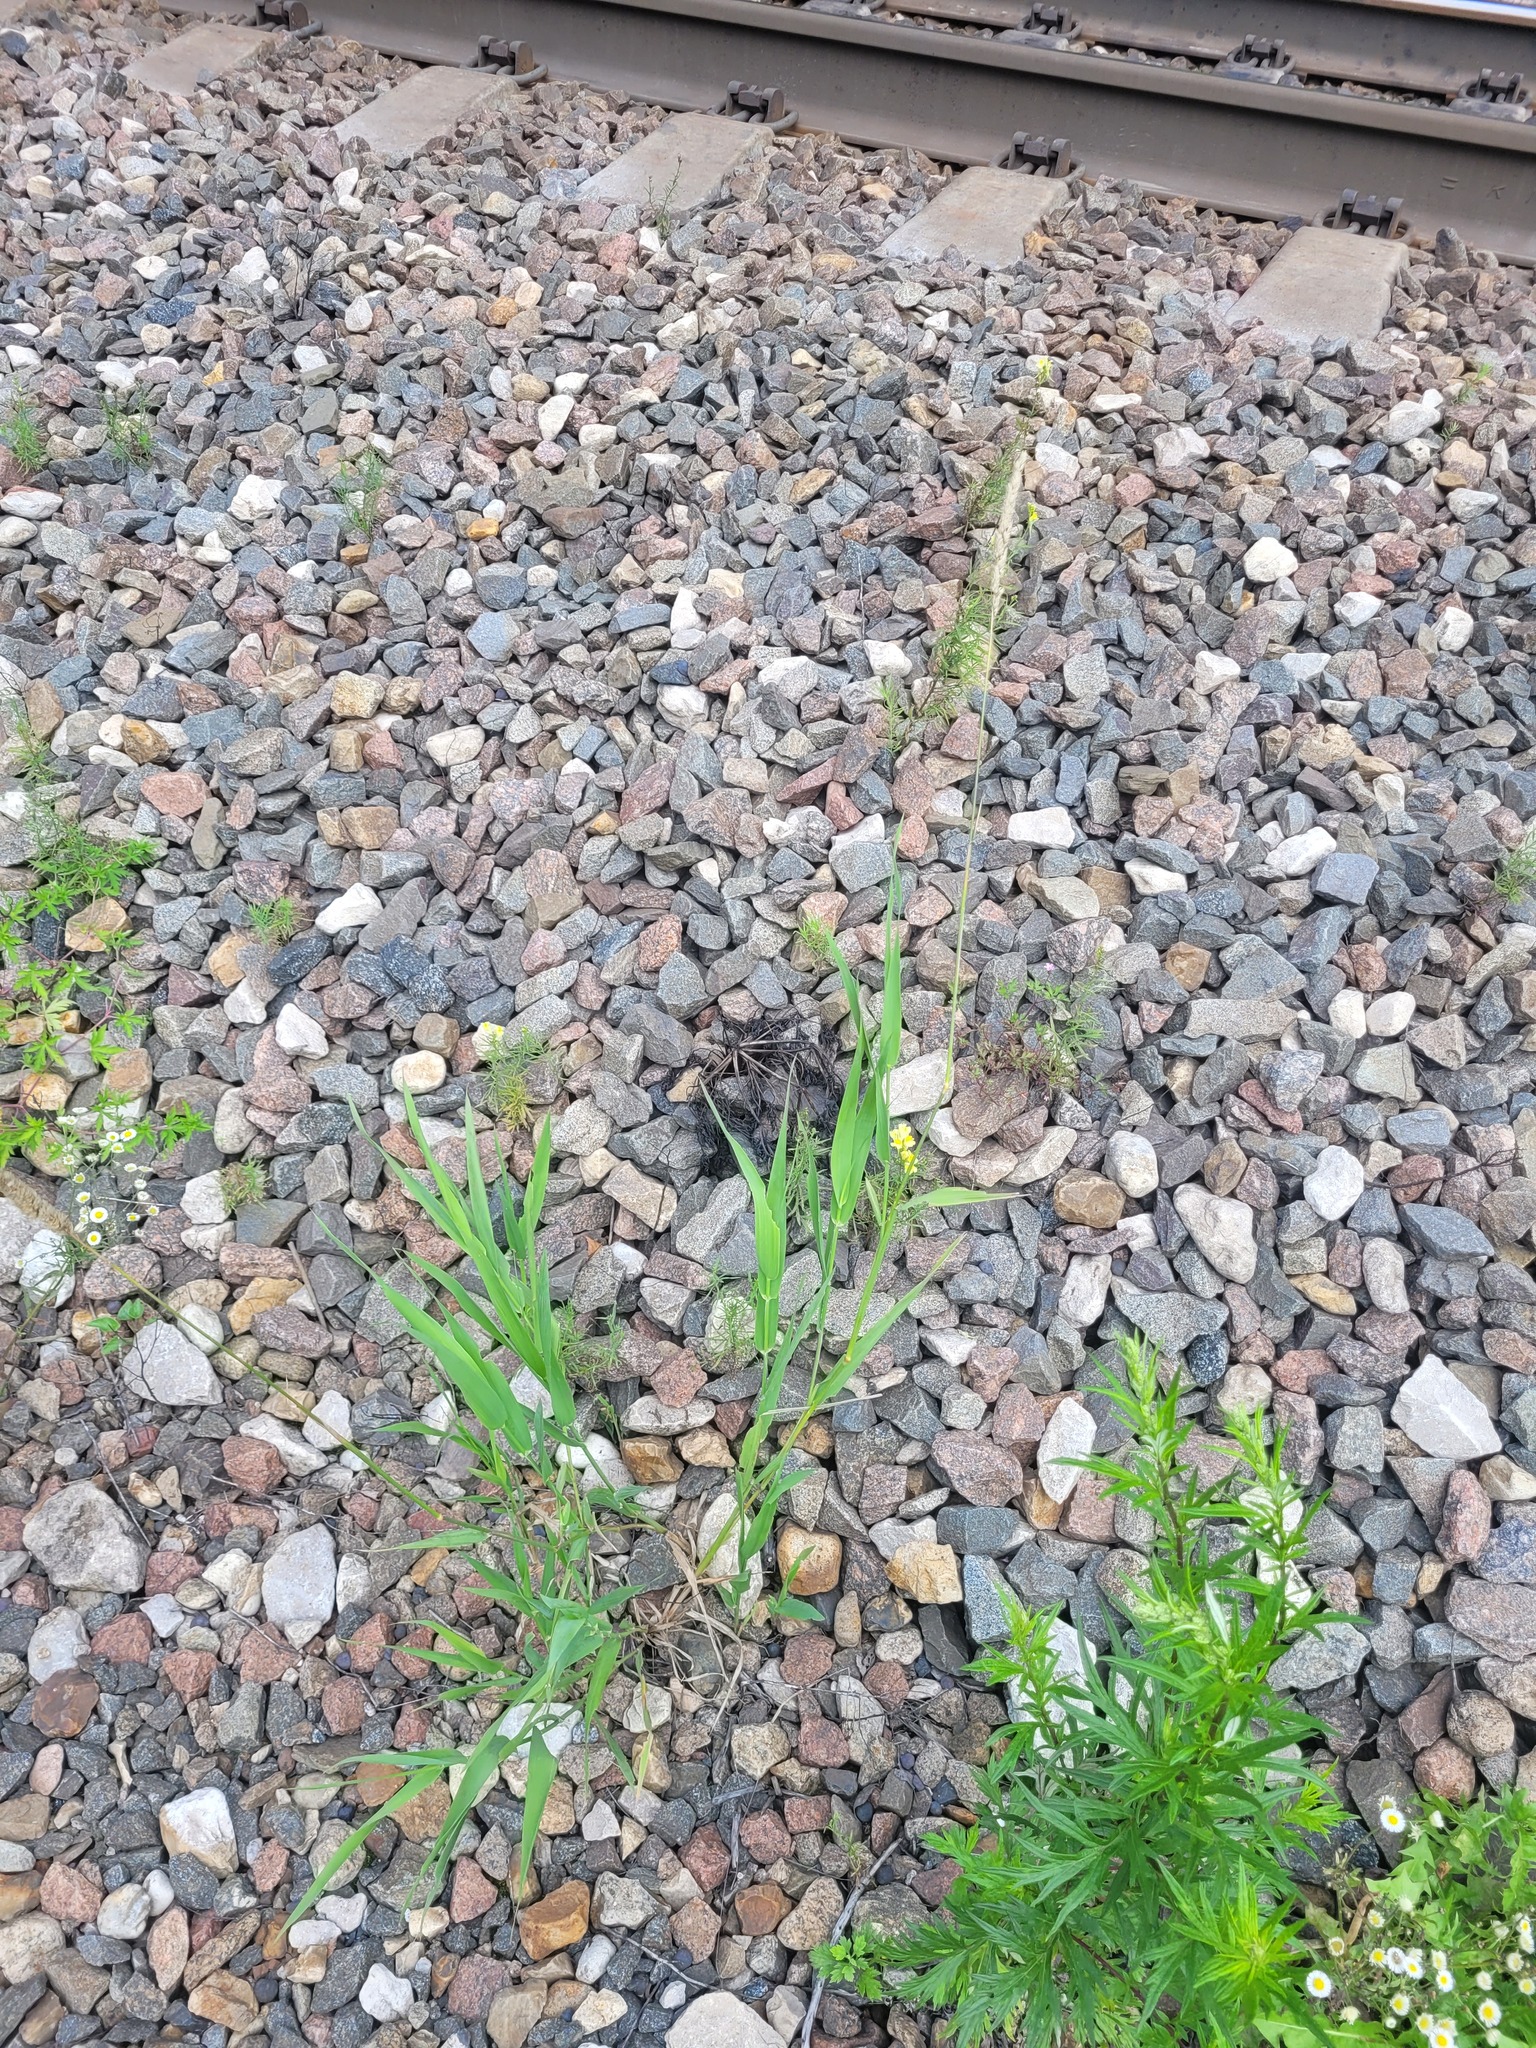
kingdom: Plantae
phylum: Tracheophyta
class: Liliopsida
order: Poales
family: Poaceae
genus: Phalaris
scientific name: Phalaris arundinacea
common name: Reed canary-grass
